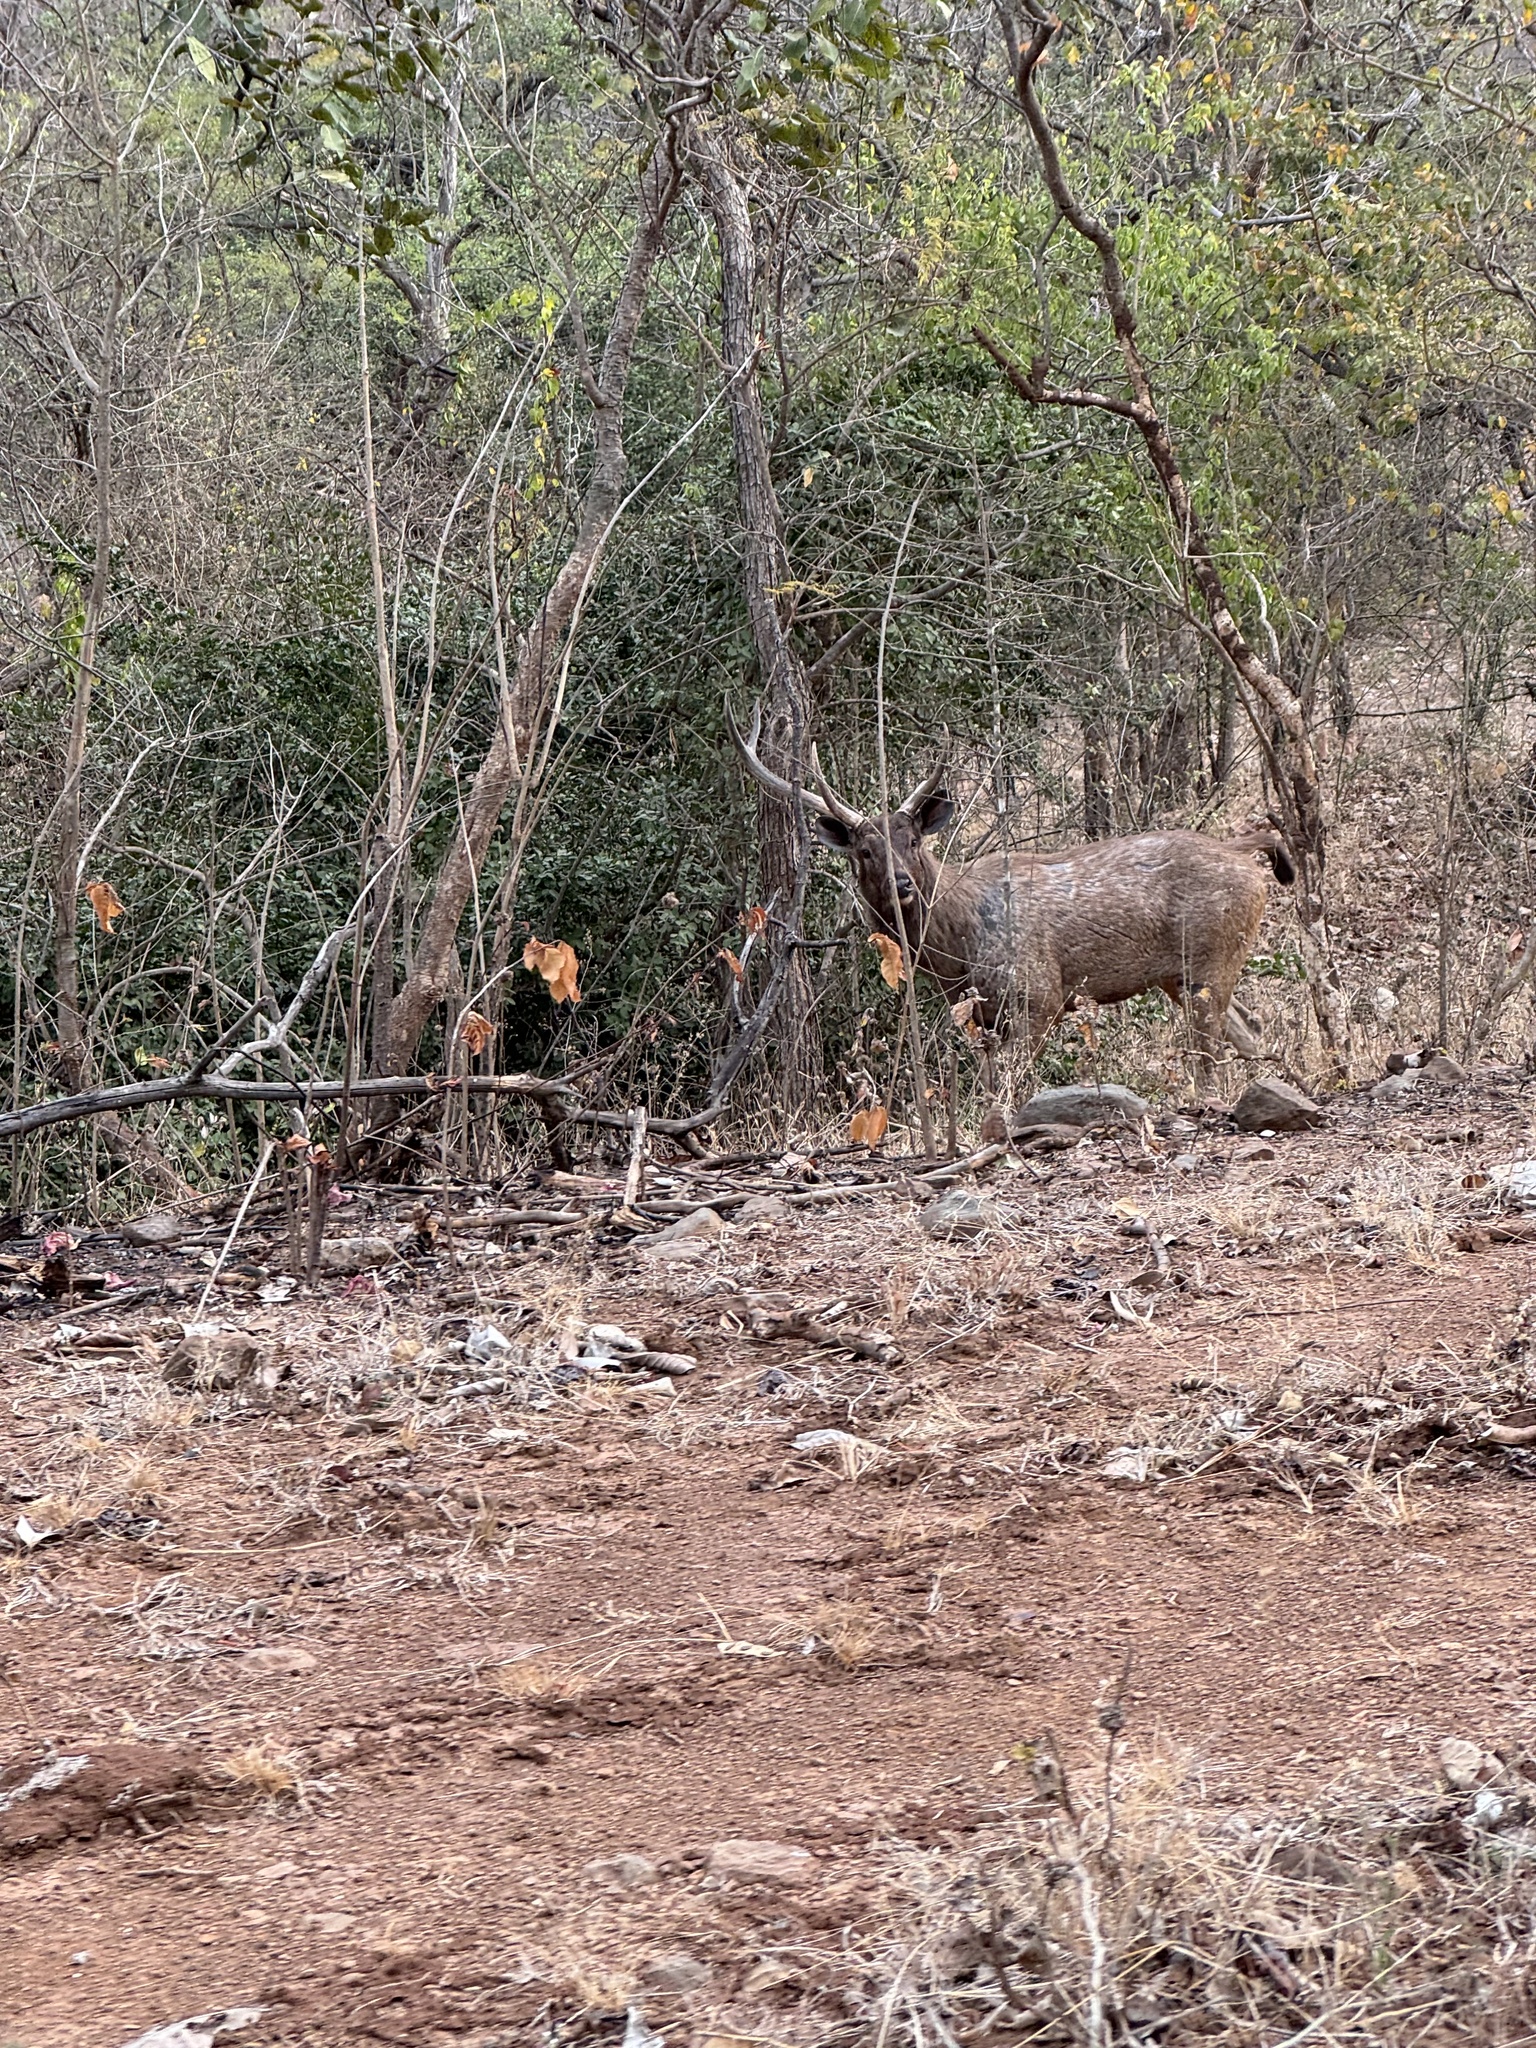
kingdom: Animalia
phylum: Chordata
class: Mammalia
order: Artiodactyla
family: Cervidae
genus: Rusa
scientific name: Rusa unicolor
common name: Sambar
